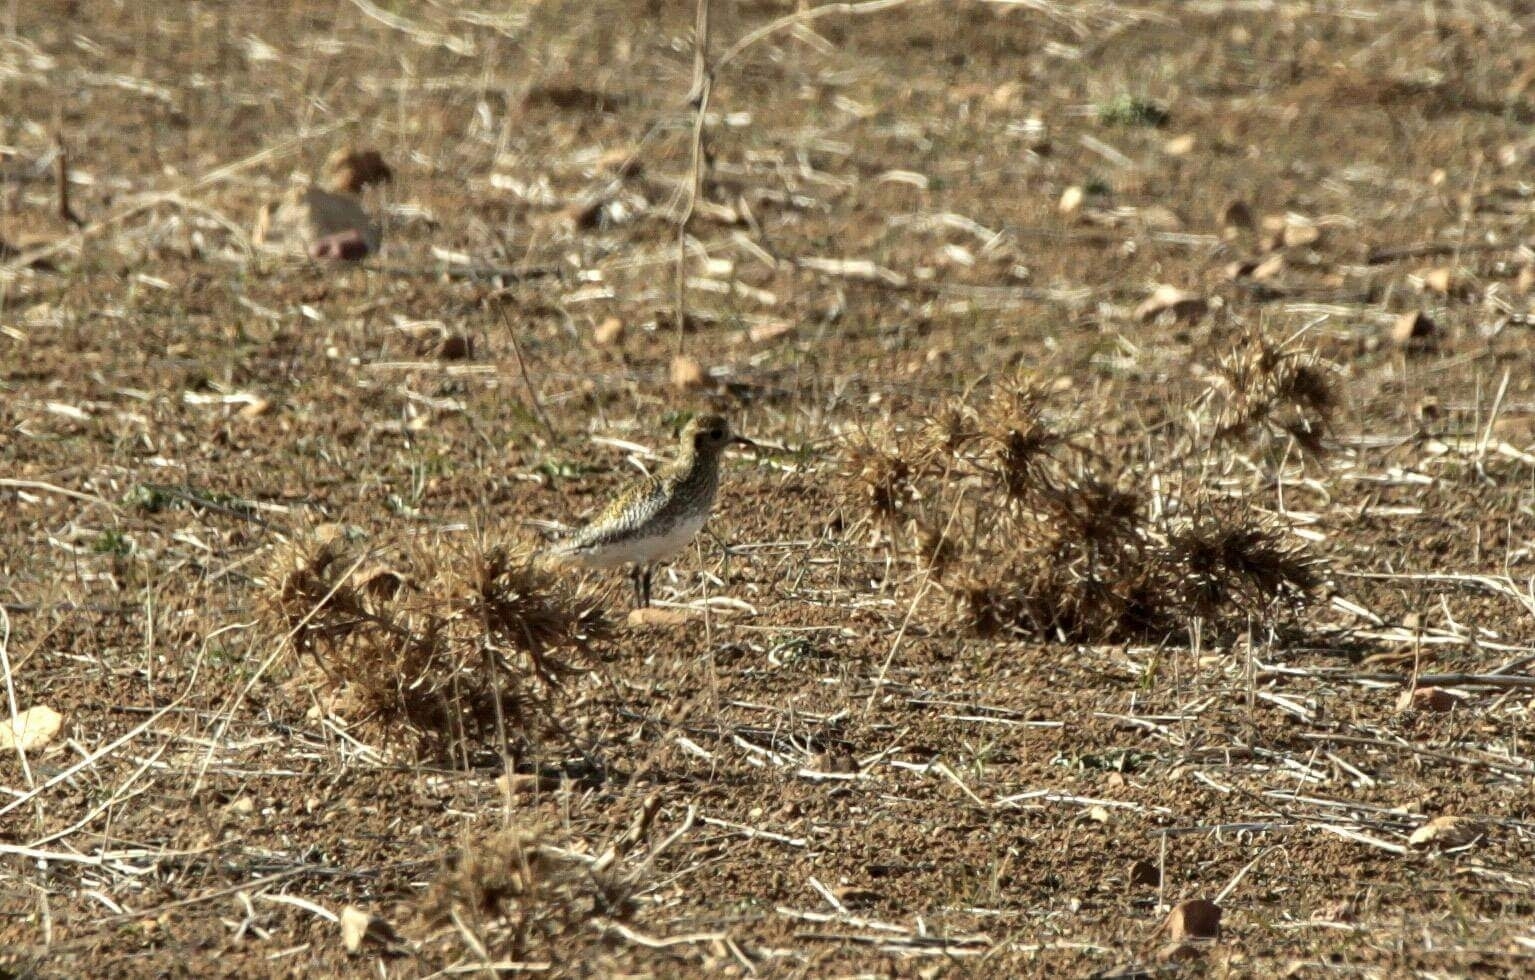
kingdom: Animalia
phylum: Chordata
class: Aves
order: Charadriiformes
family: Charadriidae
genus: Pluvialis
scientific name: Pluvialis apricaria
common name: European golden plover
